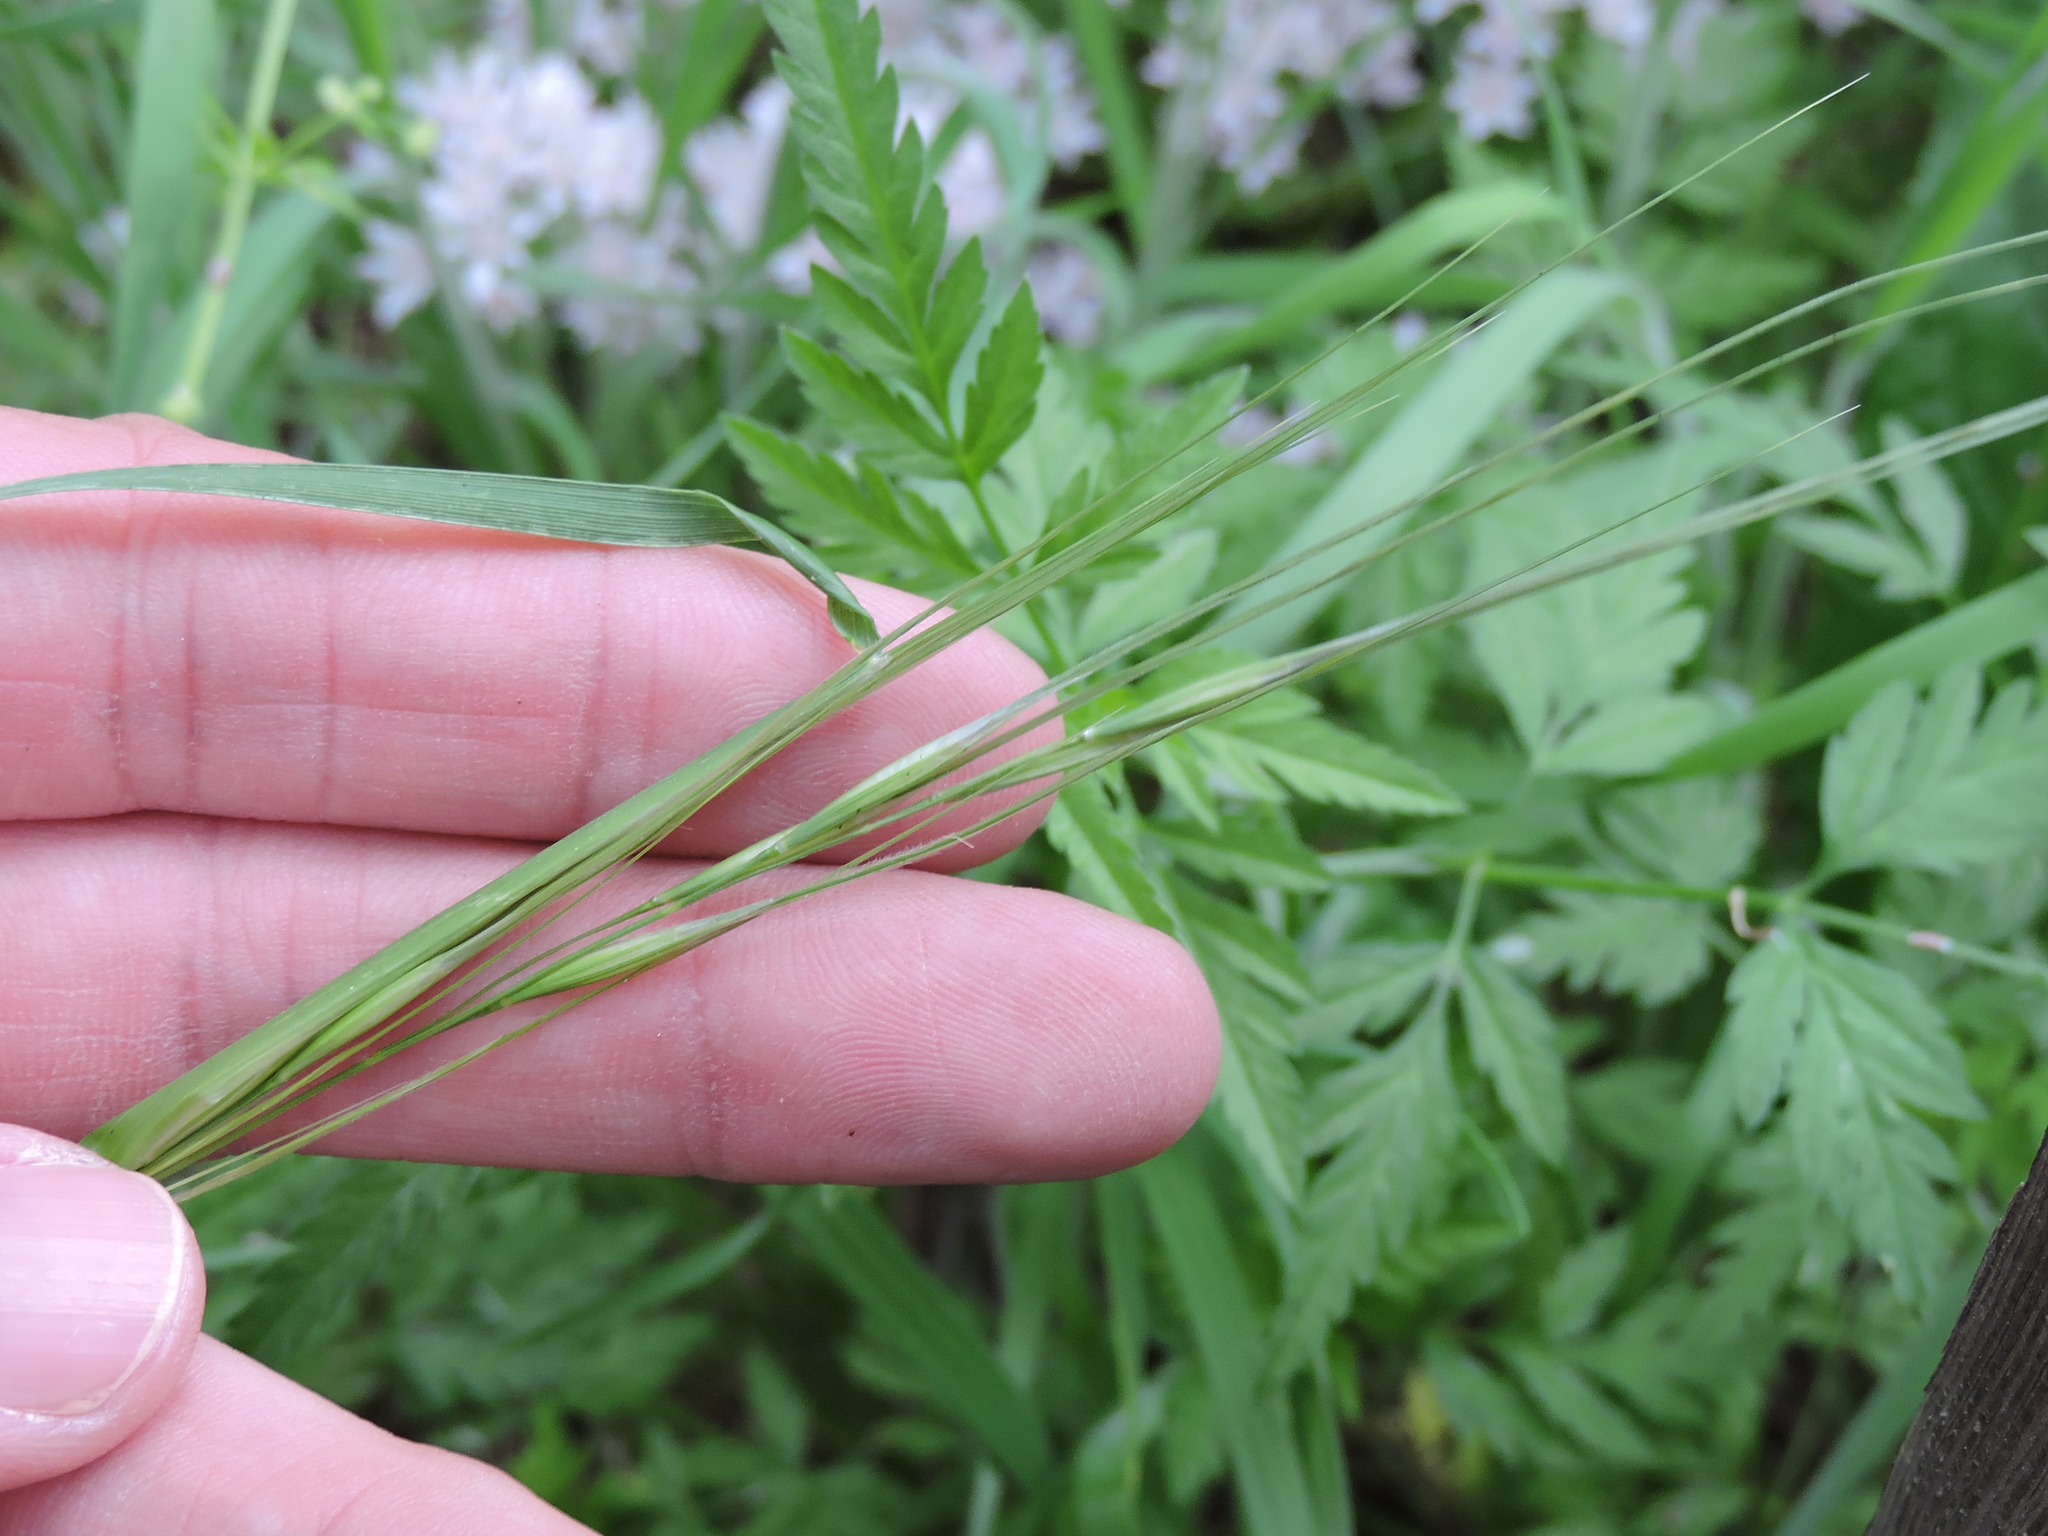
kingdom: Plantae
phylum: Tracheophyta
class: Liliopsida
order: Poales
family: Poaceae
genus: Nassella
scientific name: Nassella leucotricha
